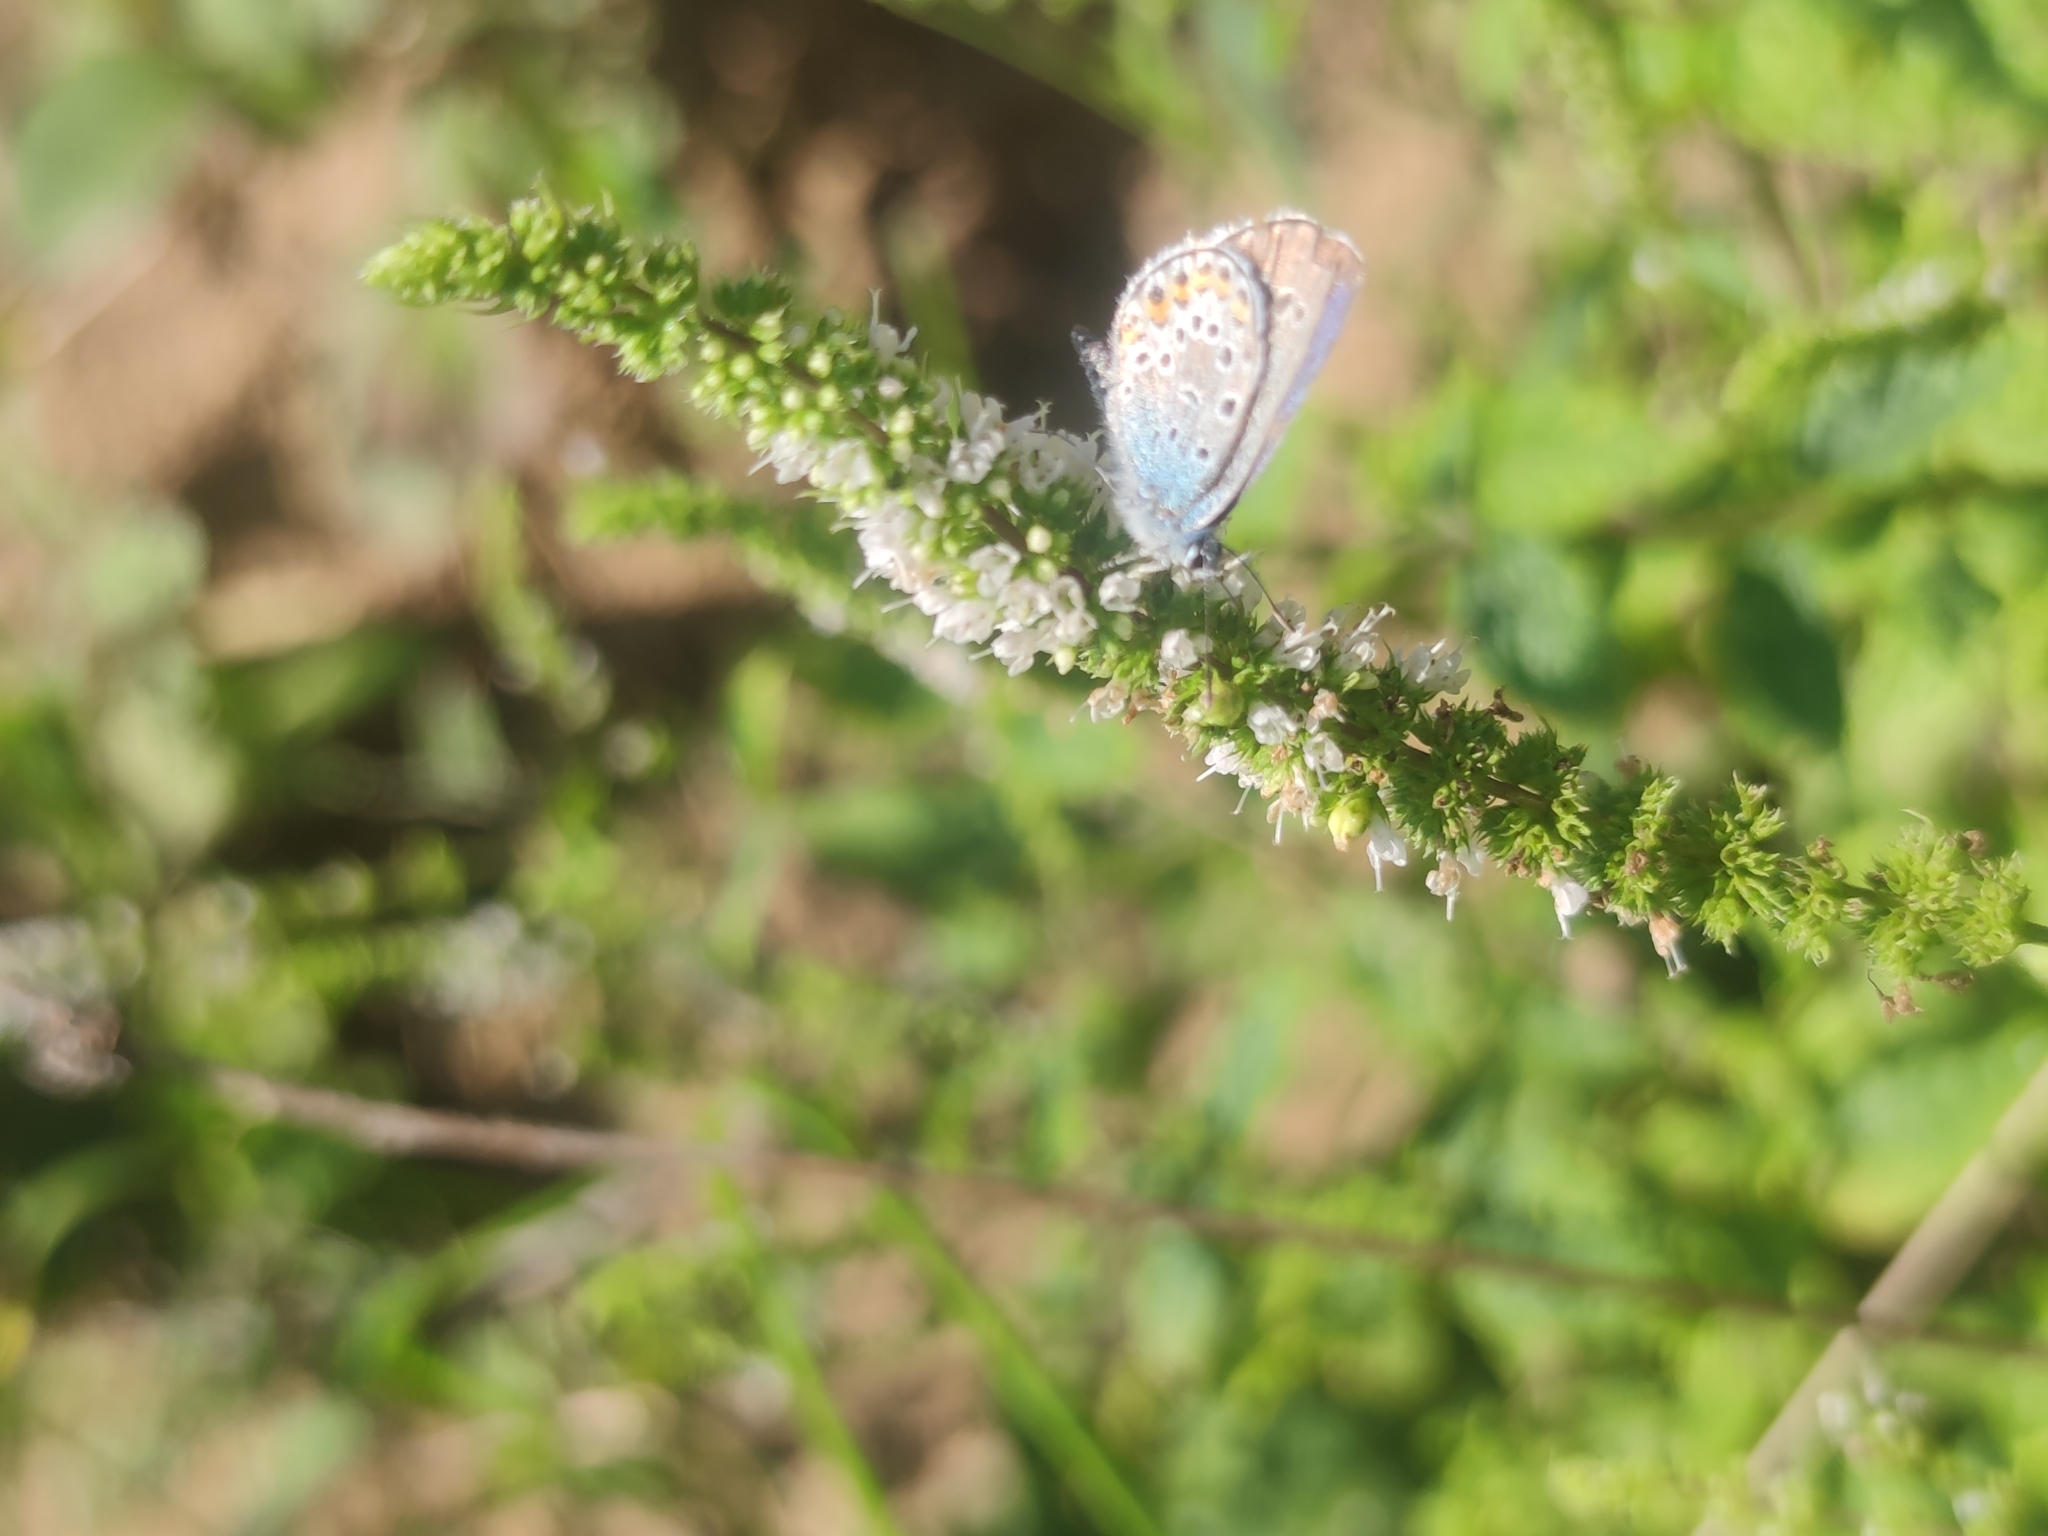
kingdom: Animalia
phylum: Arthropoda
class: Insecta
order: Lepidoptera
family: Lycaenidae
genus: Plebejus
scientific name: Plebejus argus
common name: Silver-studded blue
